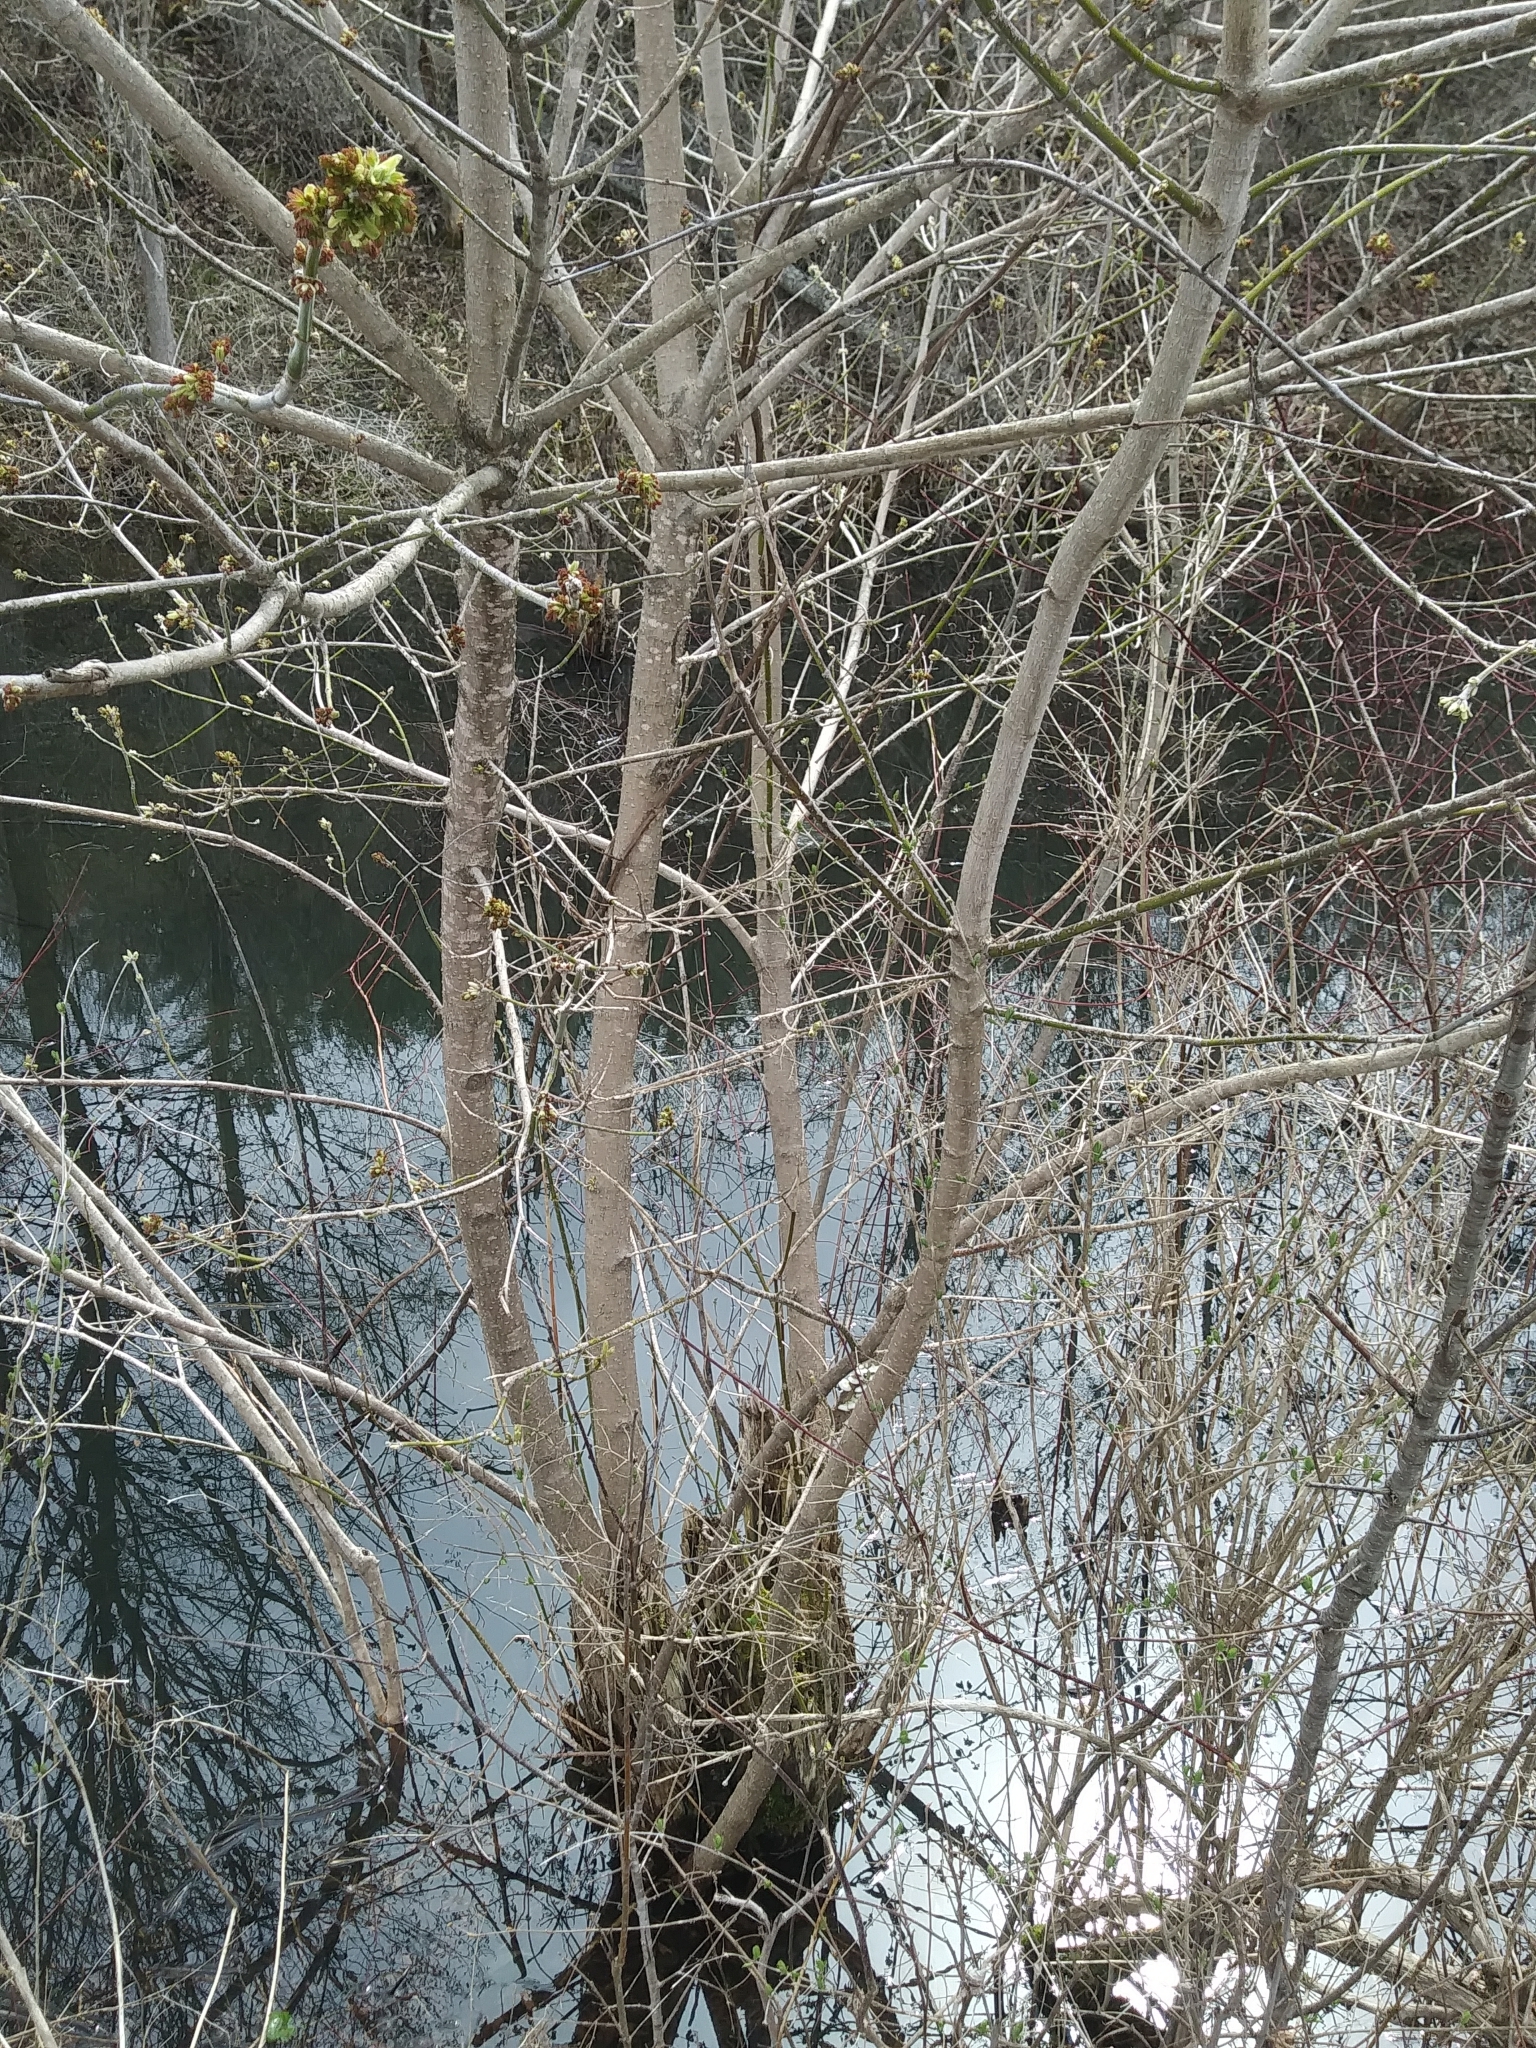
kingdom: Plantae
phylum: Tracheophyta
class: Magnoliopsida
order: Sapindales
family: Sapindaceae
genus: Acer
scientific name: Acer negundo
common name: Ashleaf maple
